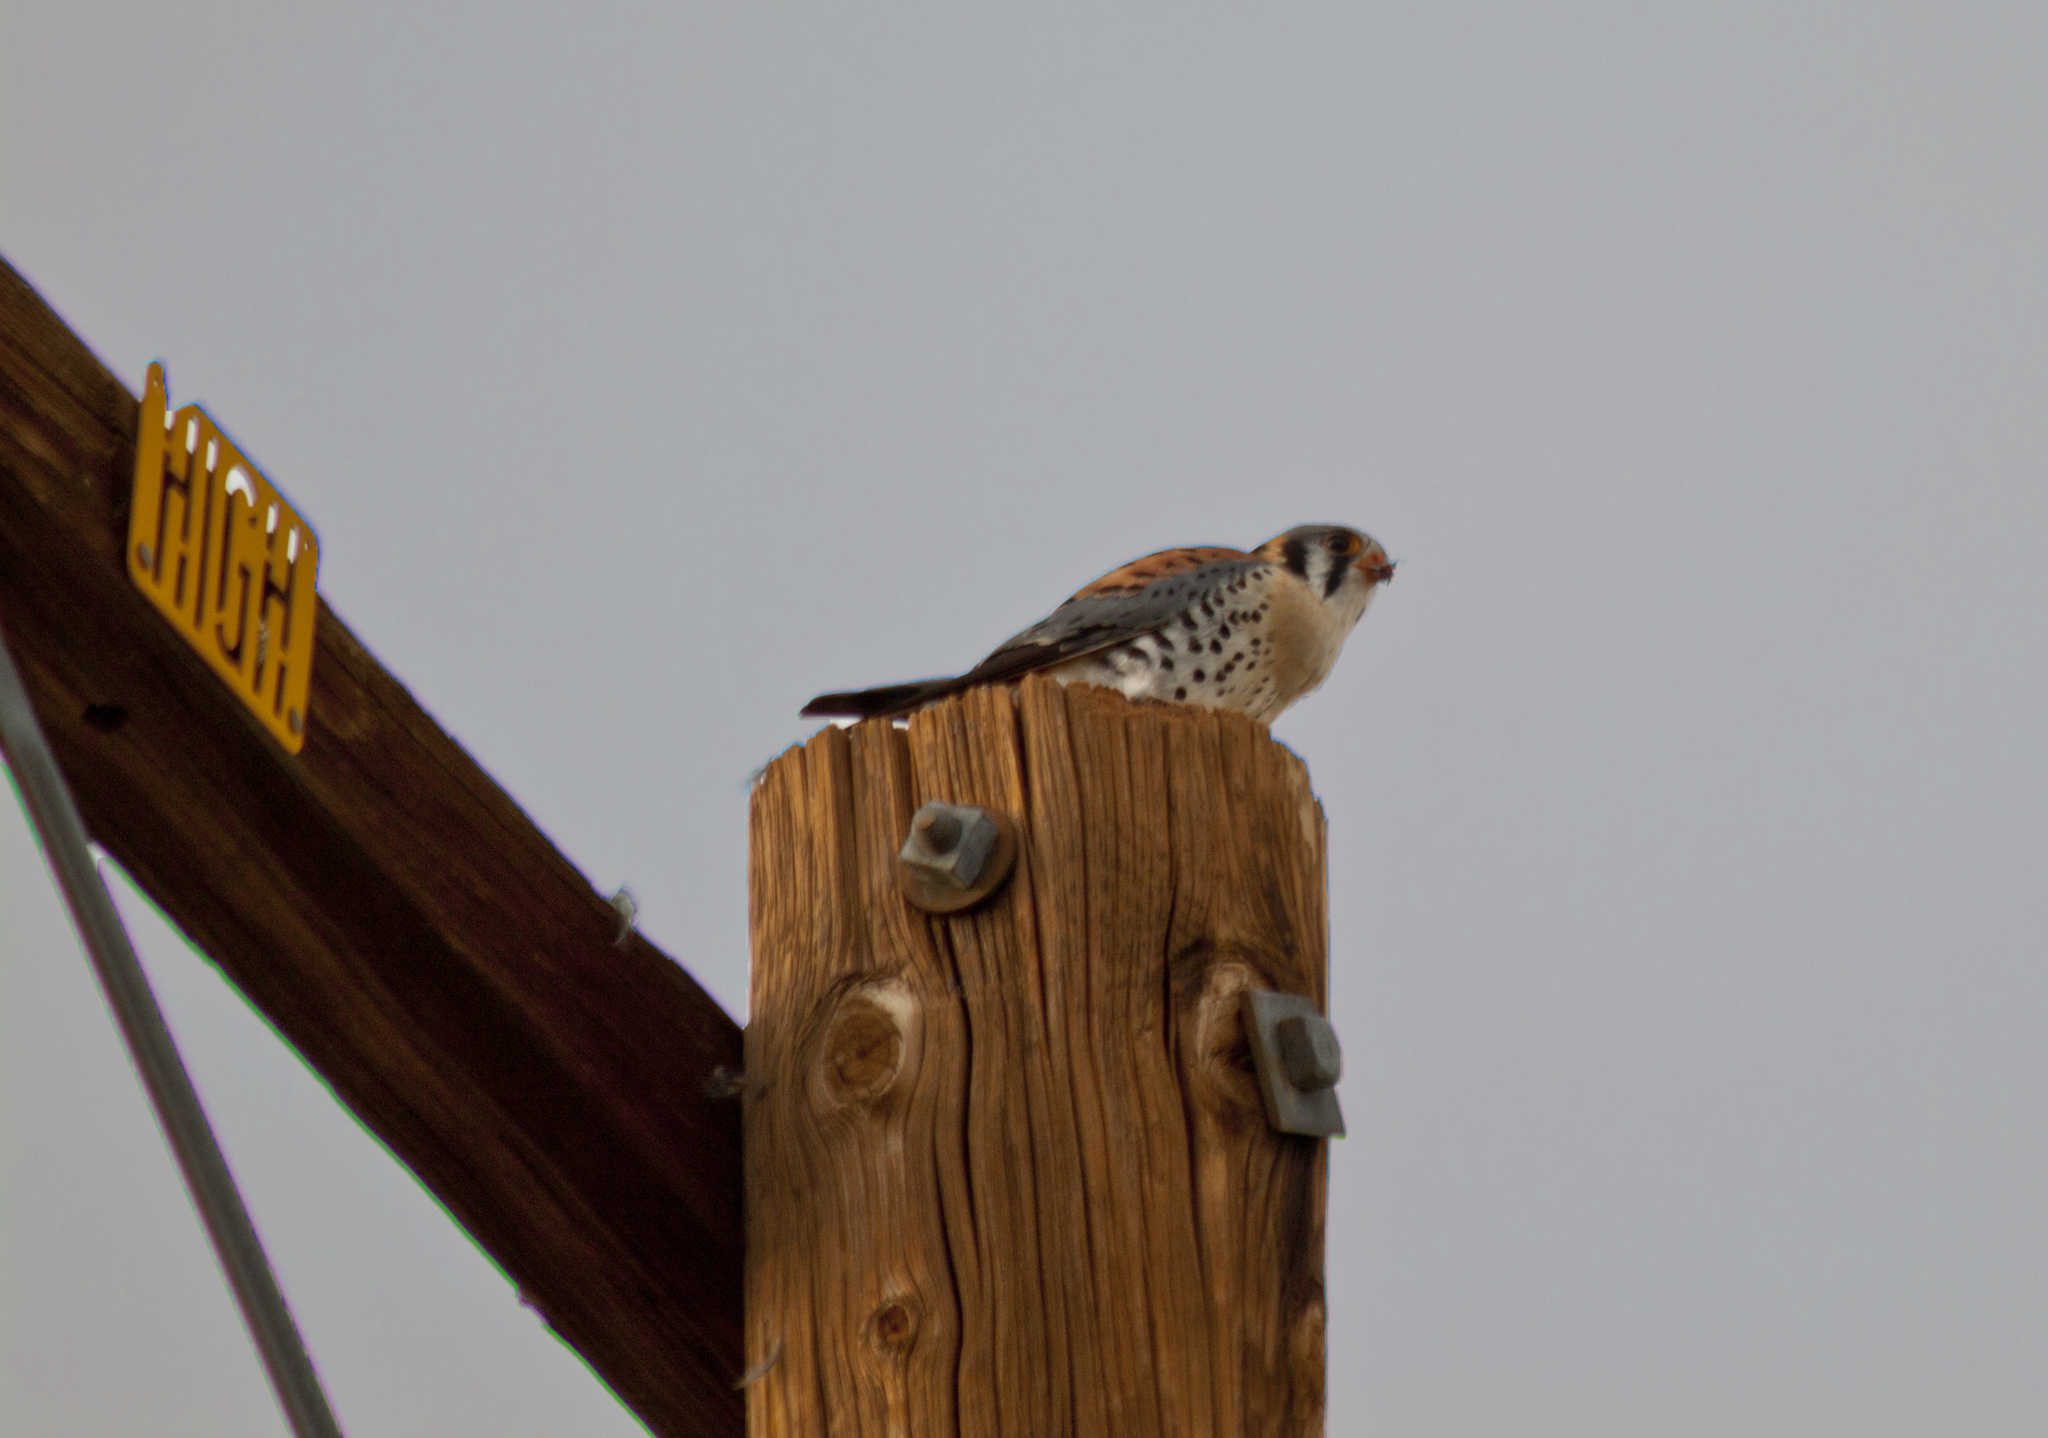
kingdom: Animalia
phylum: Chordata
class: Aves
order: Falconiformes
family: Falconidae
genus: Falco
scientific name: Falco sparverius
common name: American kestrel
